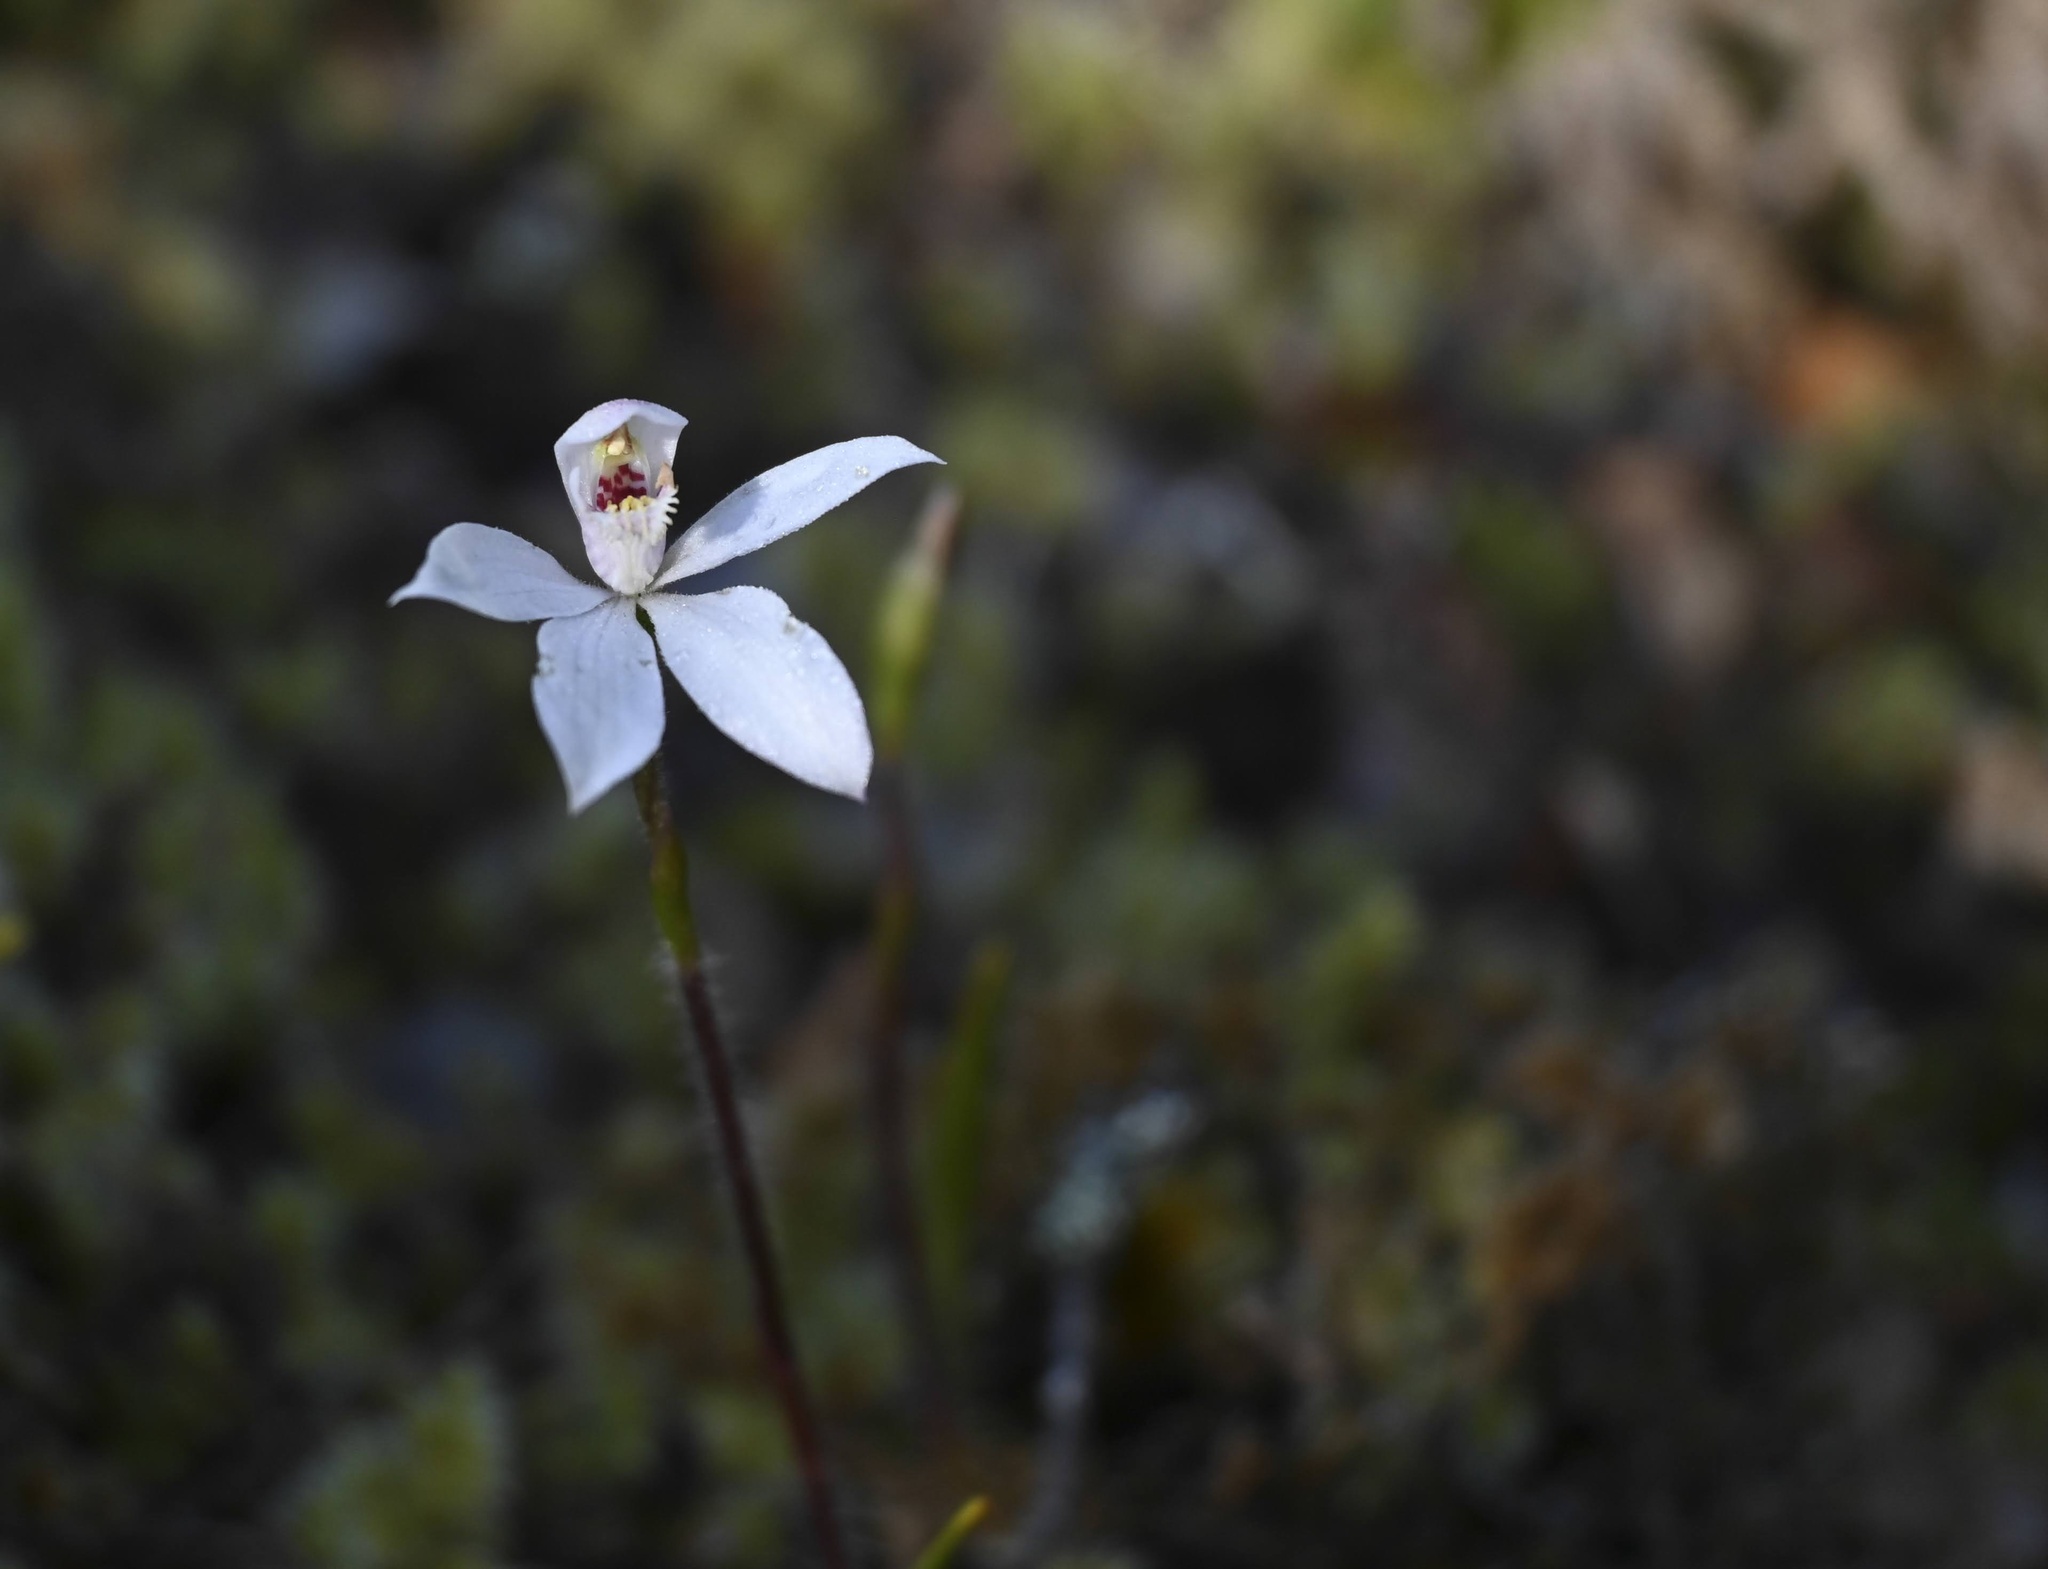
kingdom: Plantae
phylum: Tracheophyta
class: Liliopsida
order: Asparagales
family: Orchidaceae
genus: Caladenia
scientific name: Caladenia lyallii
